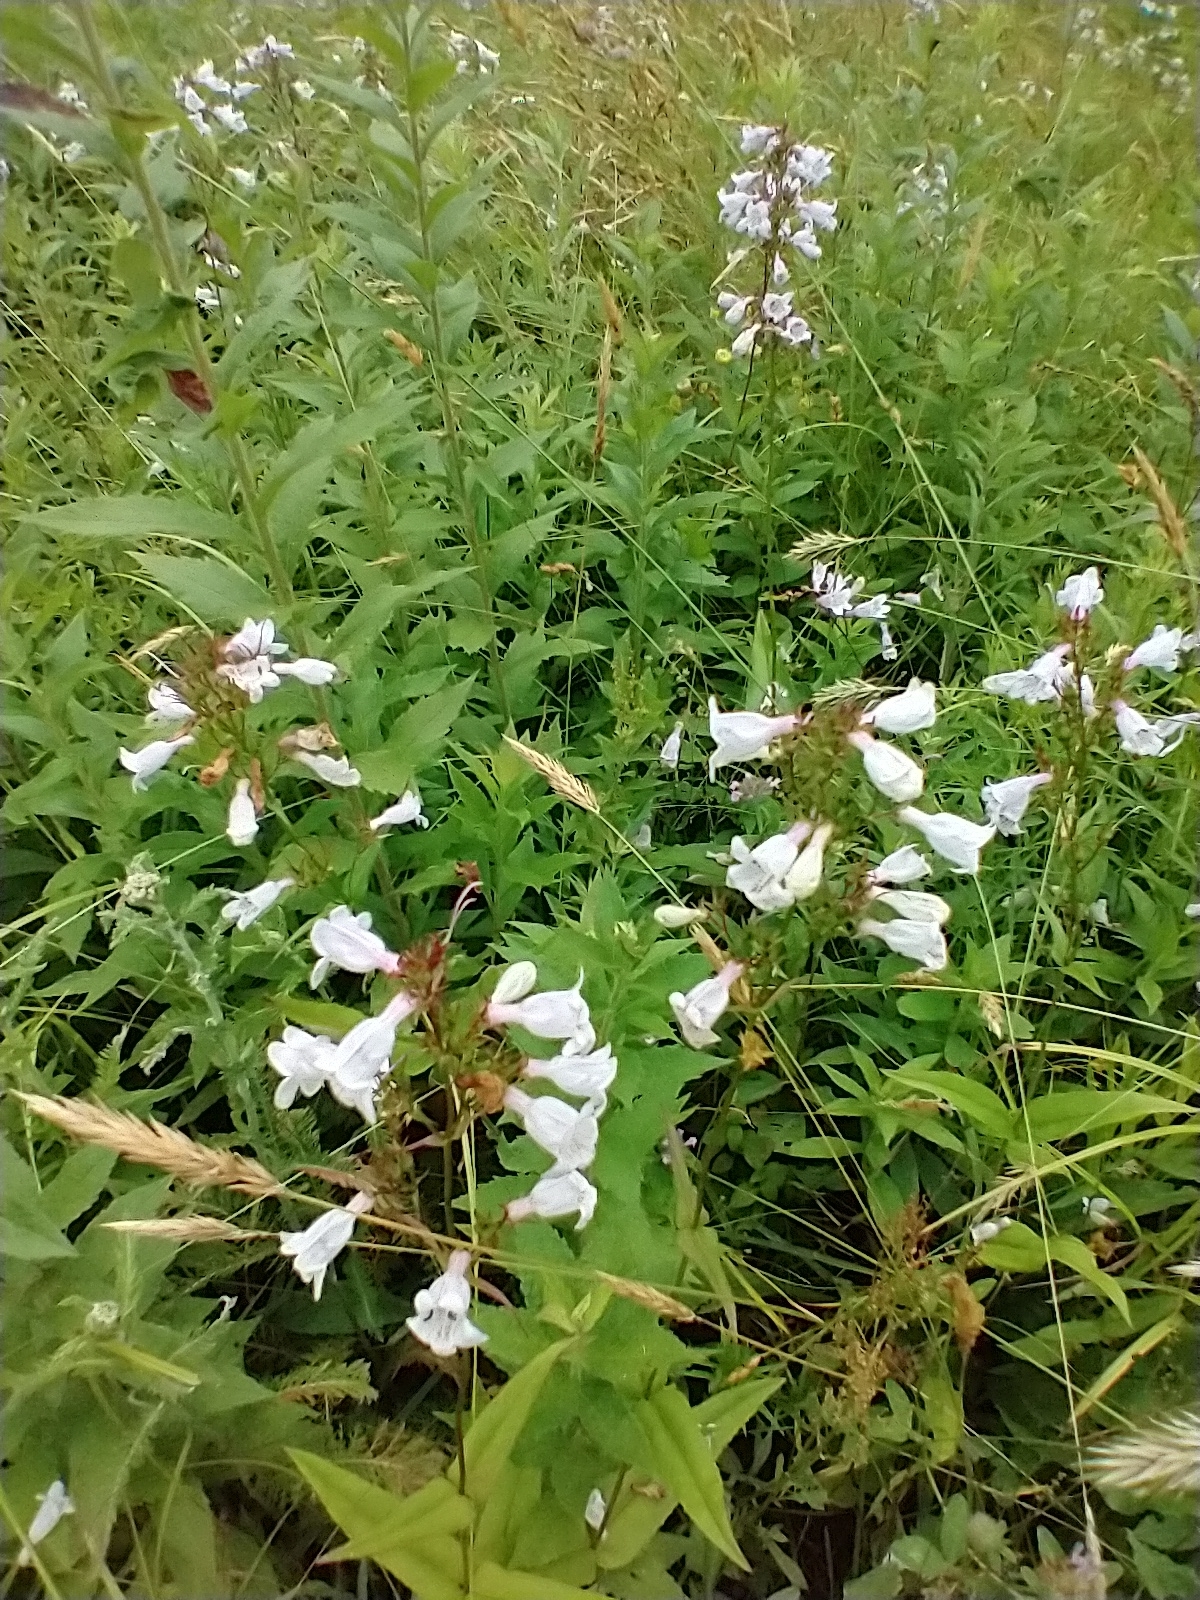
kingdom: Plantae
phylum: Tracheophyta
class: Magnoliopsida
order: Lamiales
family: Plantaginaceae
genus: Penstemon
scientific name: Penstemon digitalis
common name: Foxglove beardtongue
